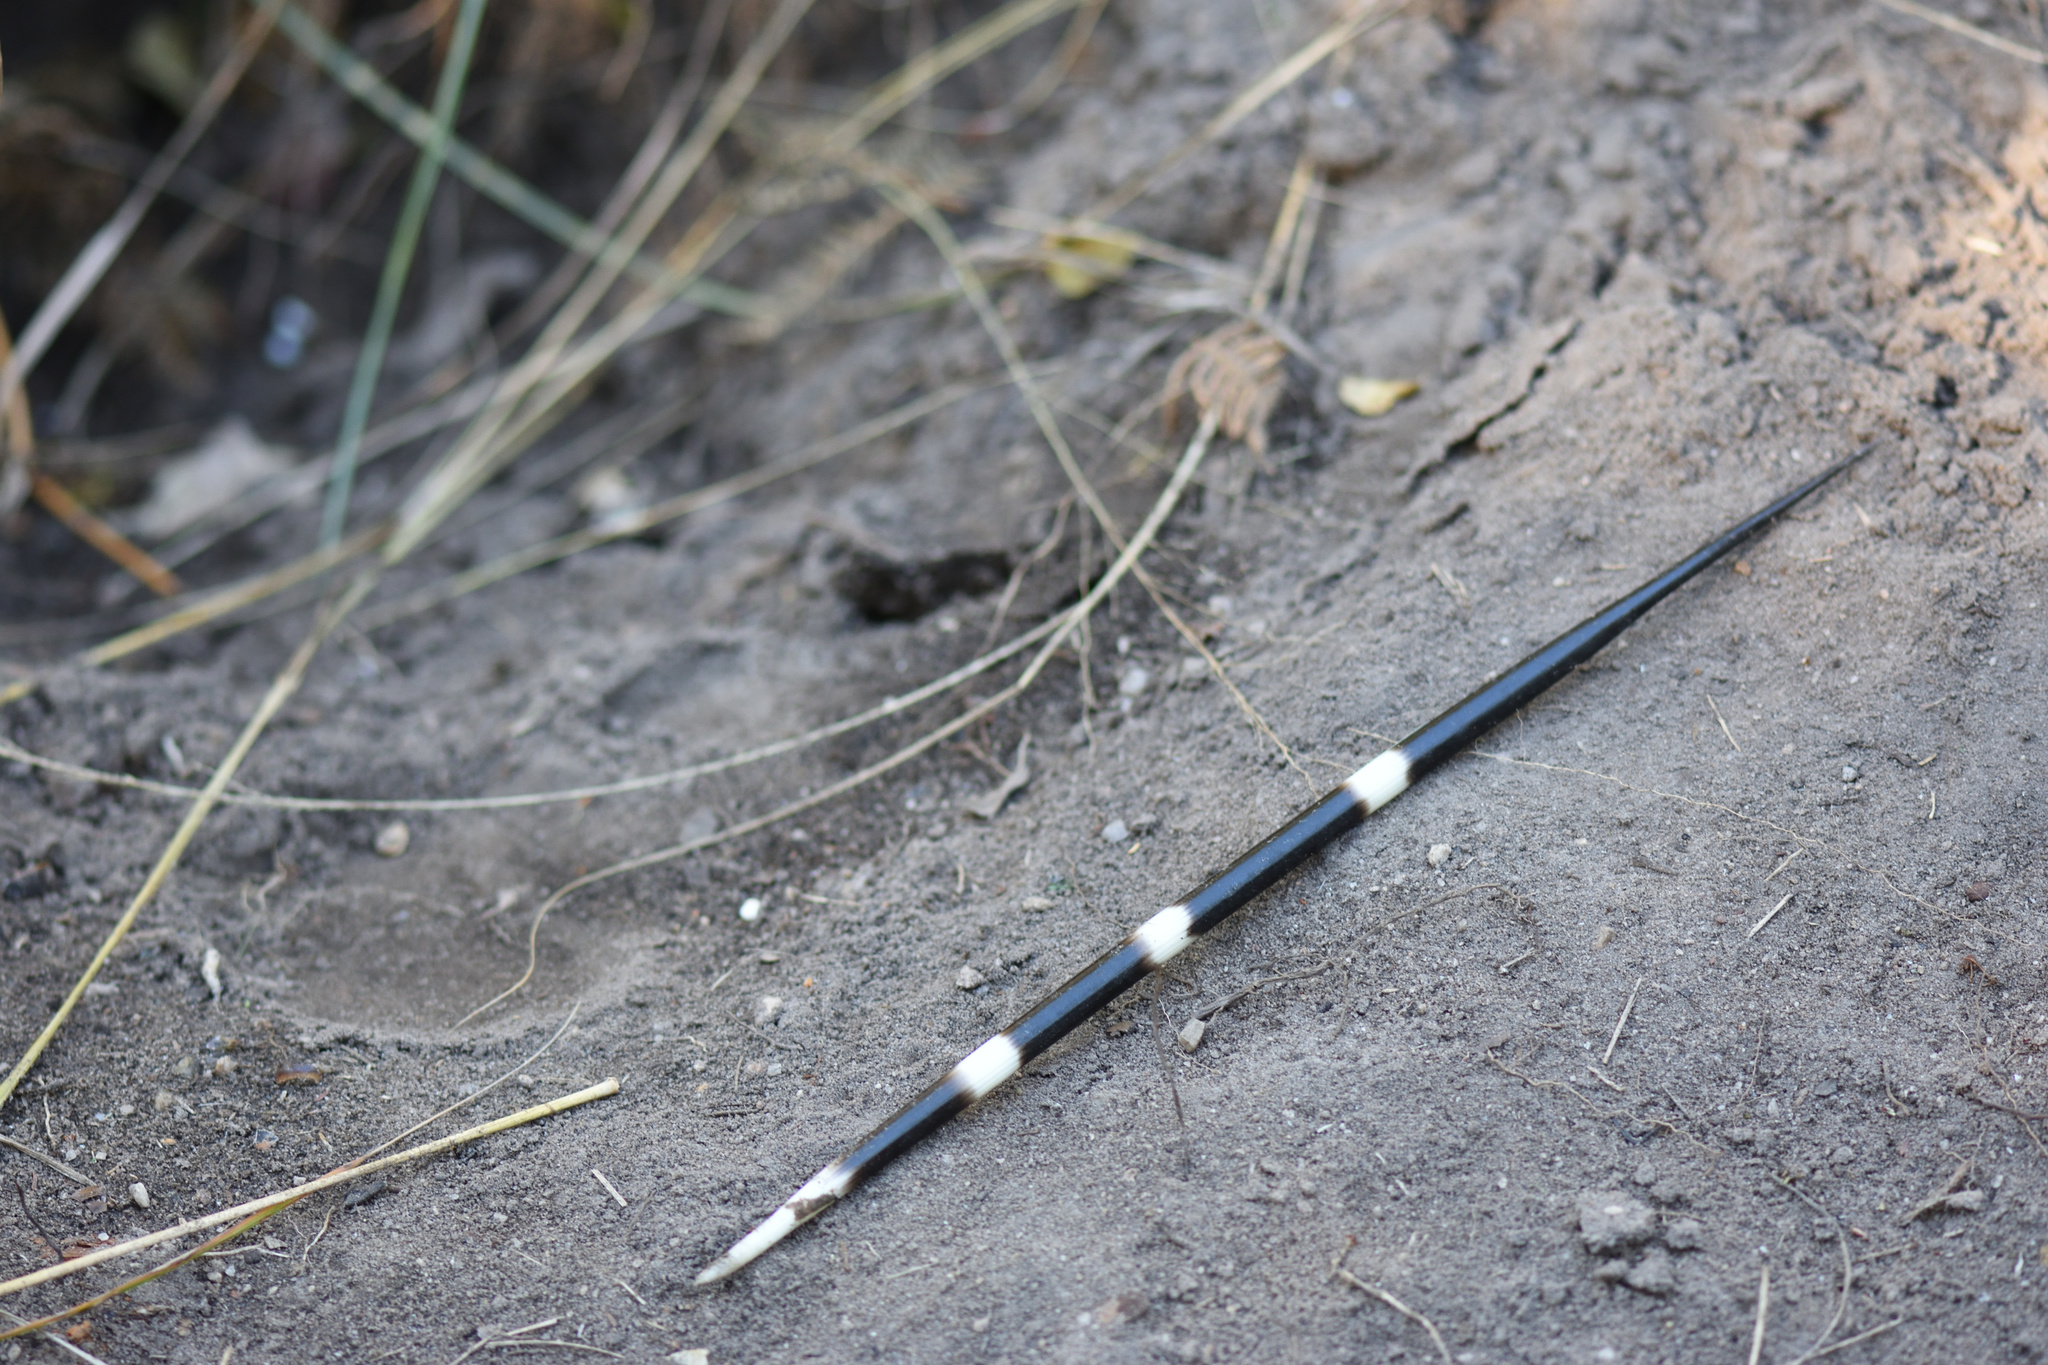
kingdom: Animalia
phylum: Chordata
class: Mammalia
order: Rodentia
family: Hystricidae
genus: Hystrix
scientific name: Hystrix africaeaustralis
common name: Cape porcupine
